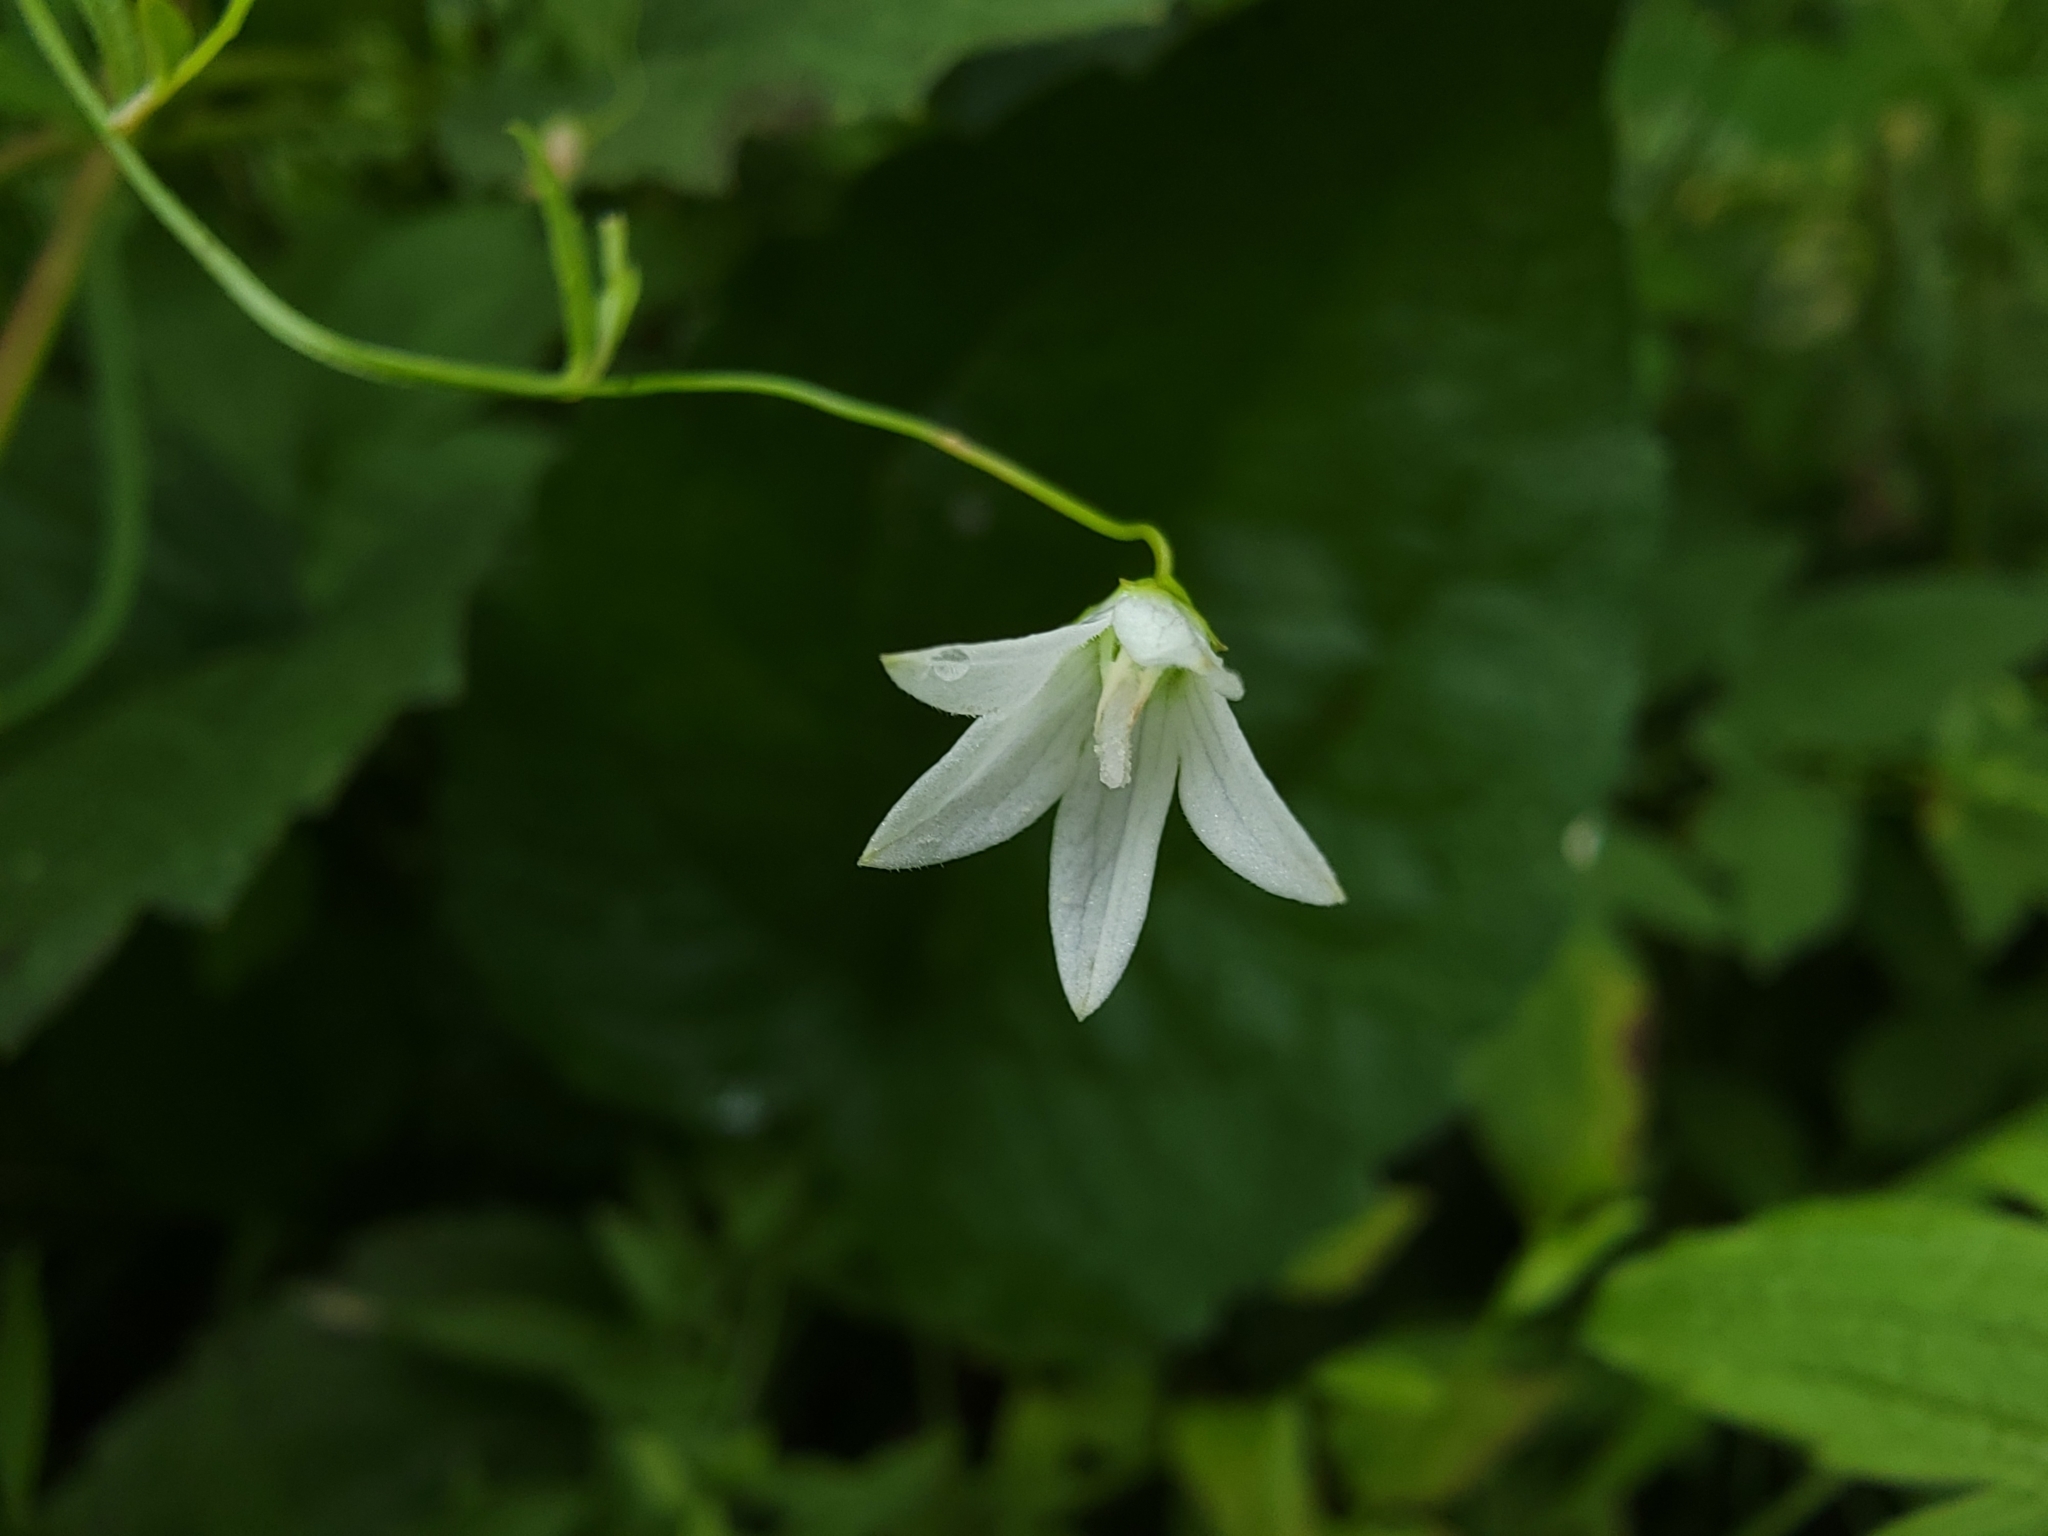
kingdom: Plantae
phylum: Tracheophyta
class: Magnoliopsida
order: Asterales
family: Campanulaceae
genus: Palustricodon
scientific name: Palustricodon aparinoides
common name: Bedstraw bellflower
